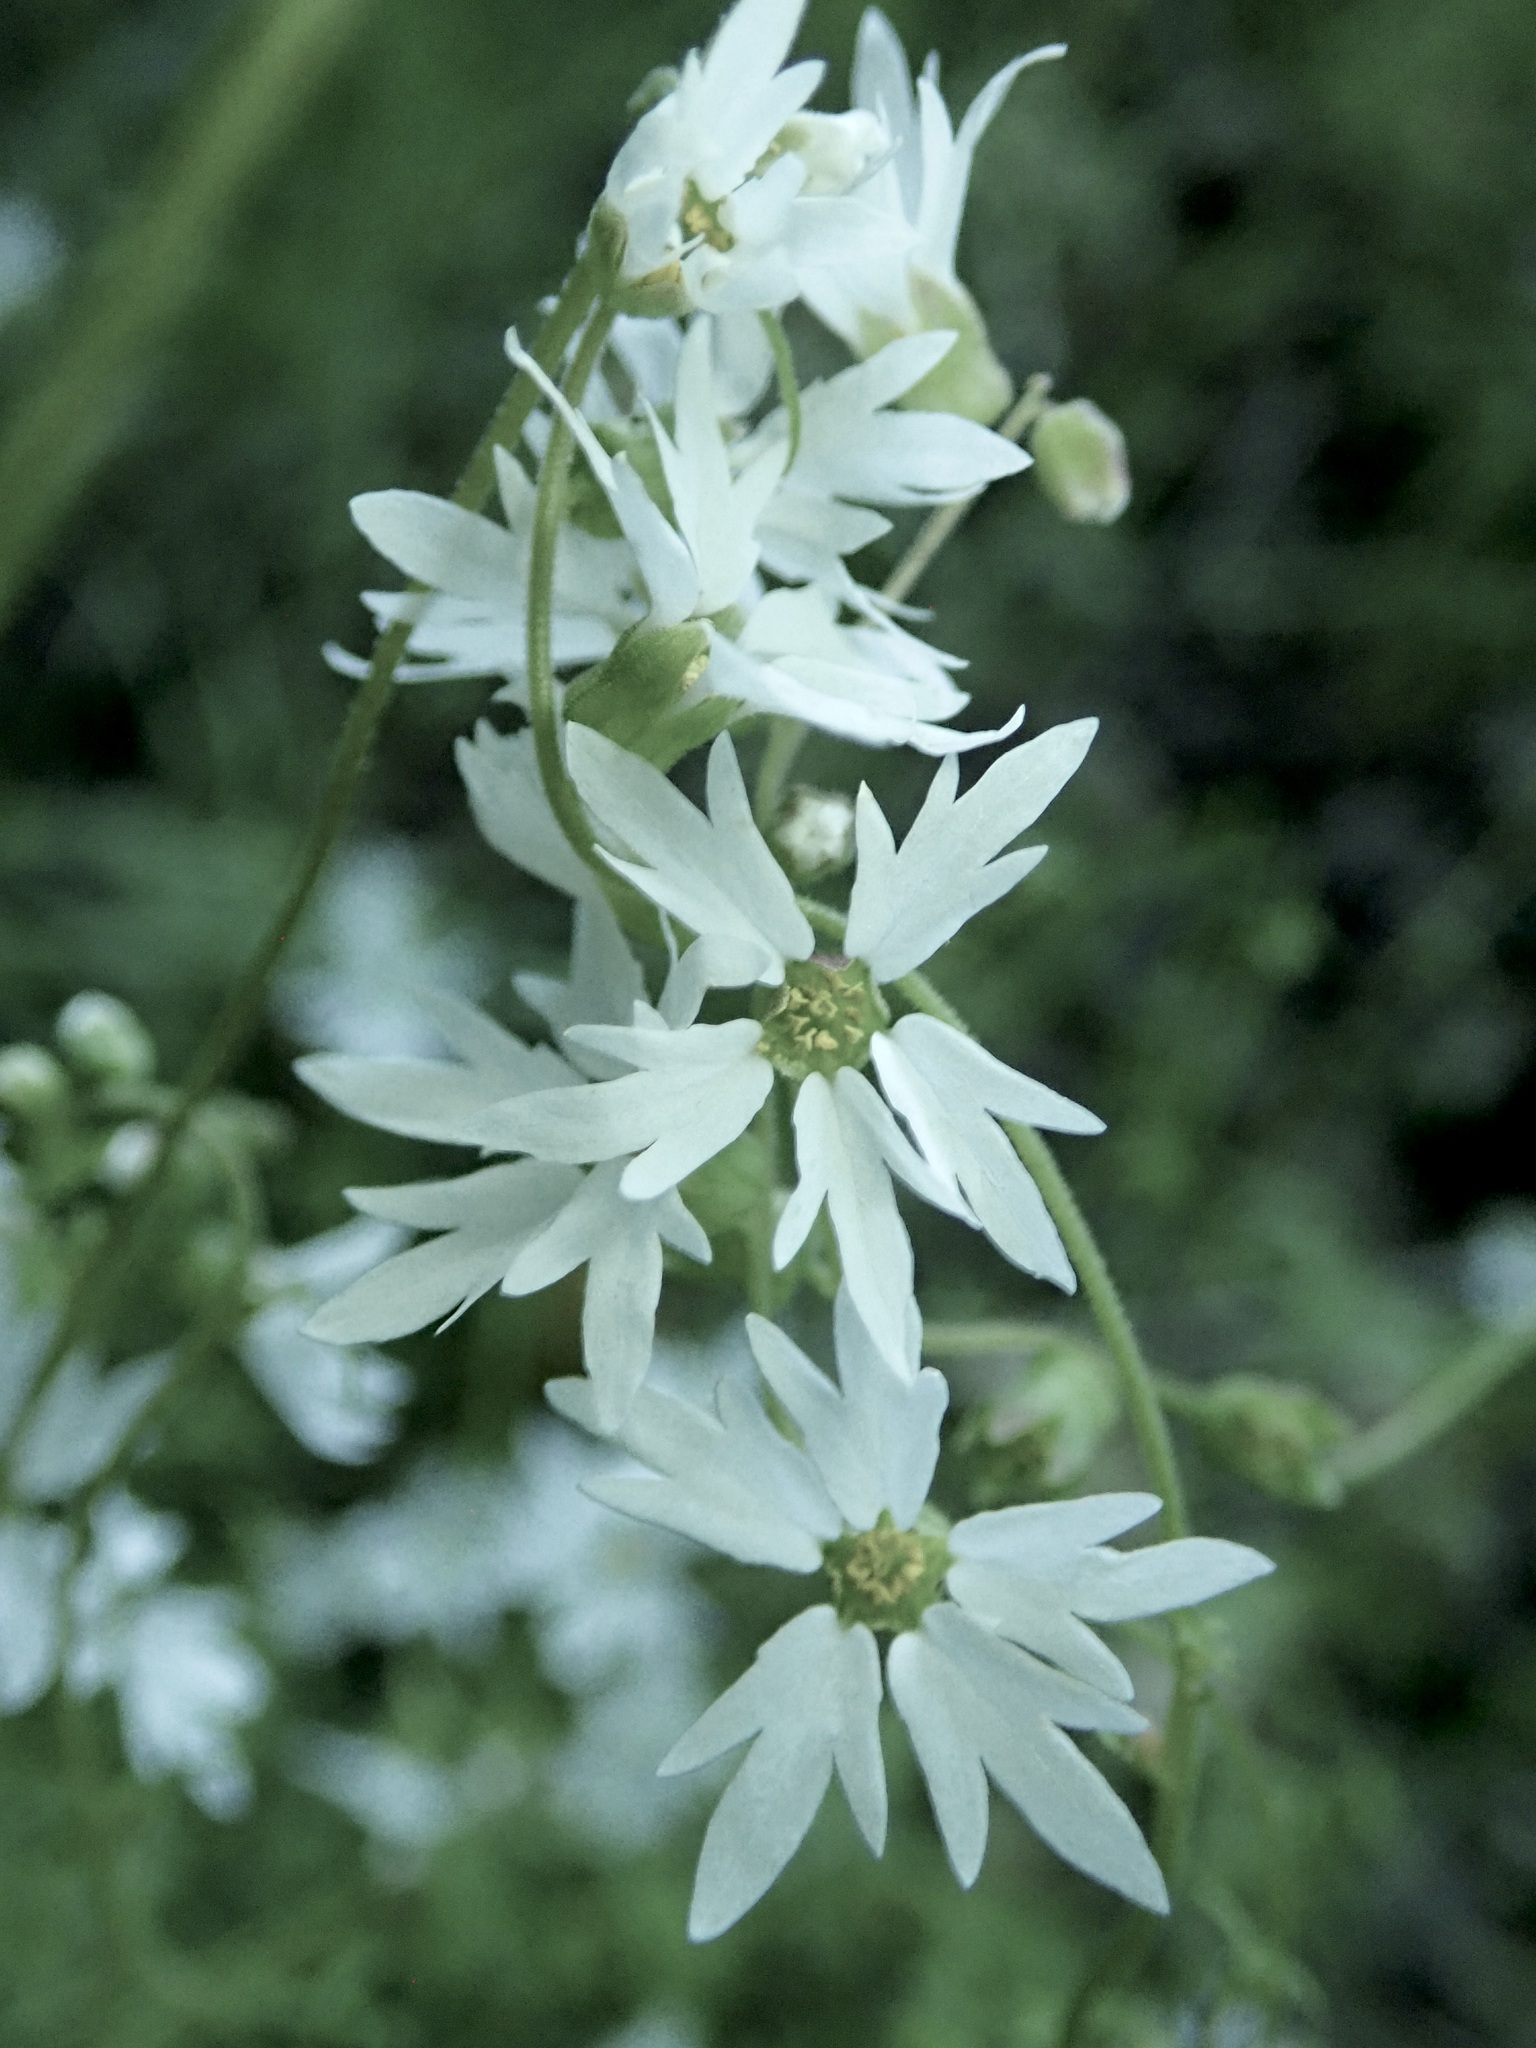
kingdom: Plantae
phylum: Tracheophyta
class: Magnoliopsida
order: Saxifragales
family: Saxifragaceae
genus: Lithophragma
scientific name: Lithophragma heterophyllum
